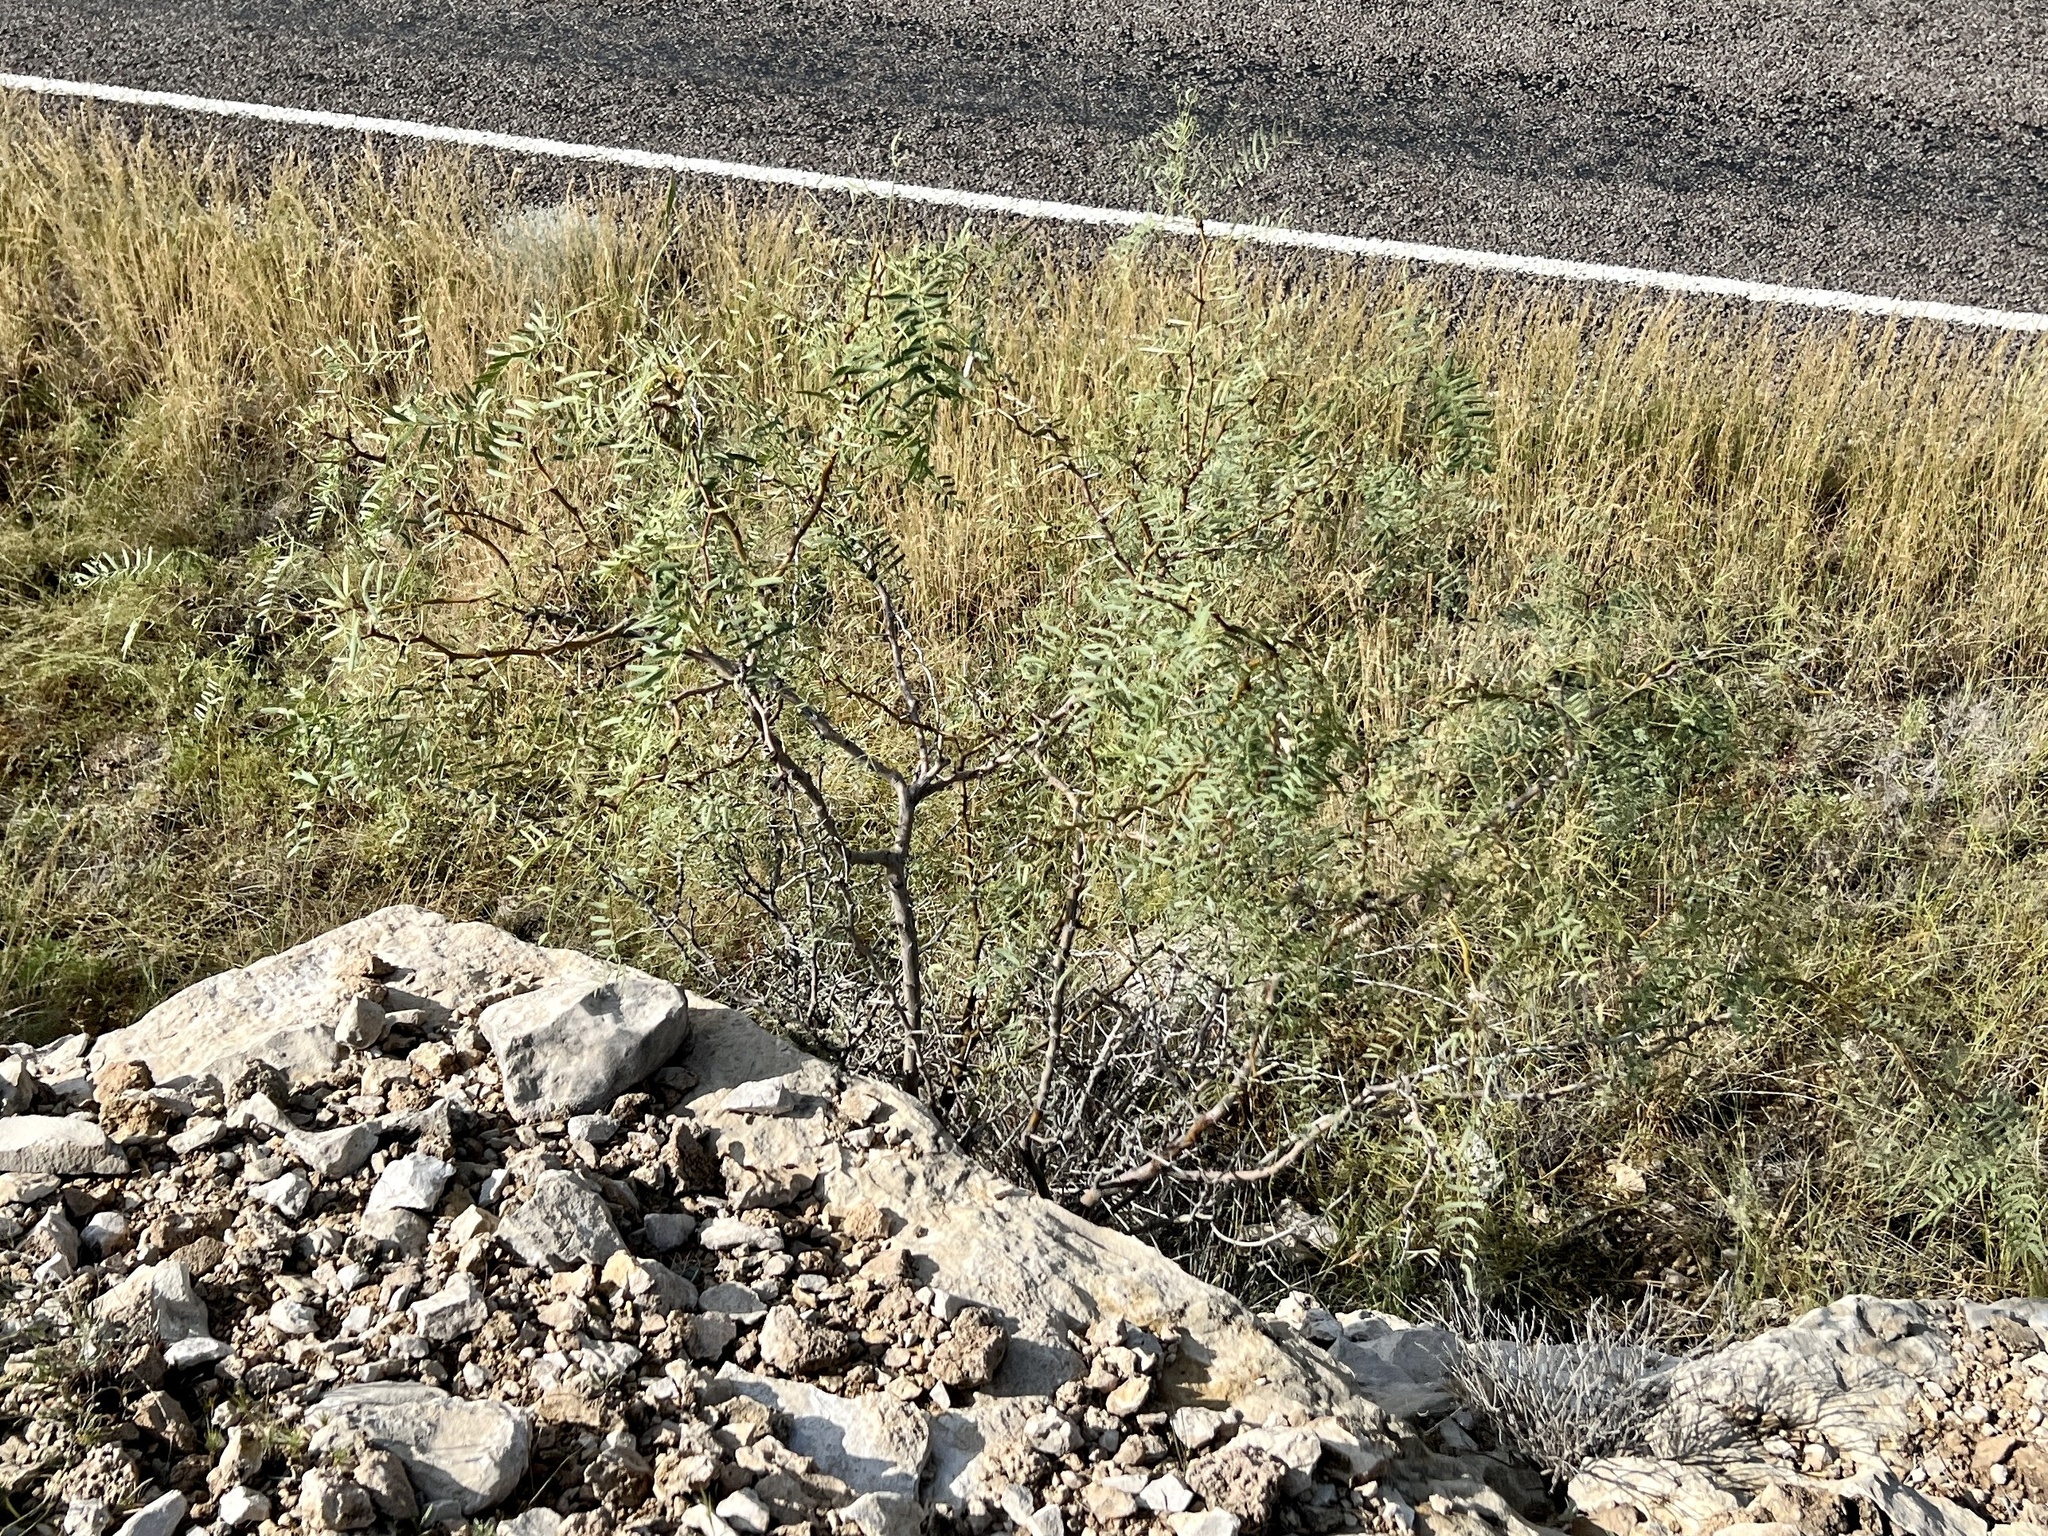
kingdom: Plantae
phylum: Tracheophyta
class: Magnoliopsida
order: Fabales
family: Fabaceae
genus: Prosopis
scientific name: Prosopis glandulosa
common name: Honey mesquite
